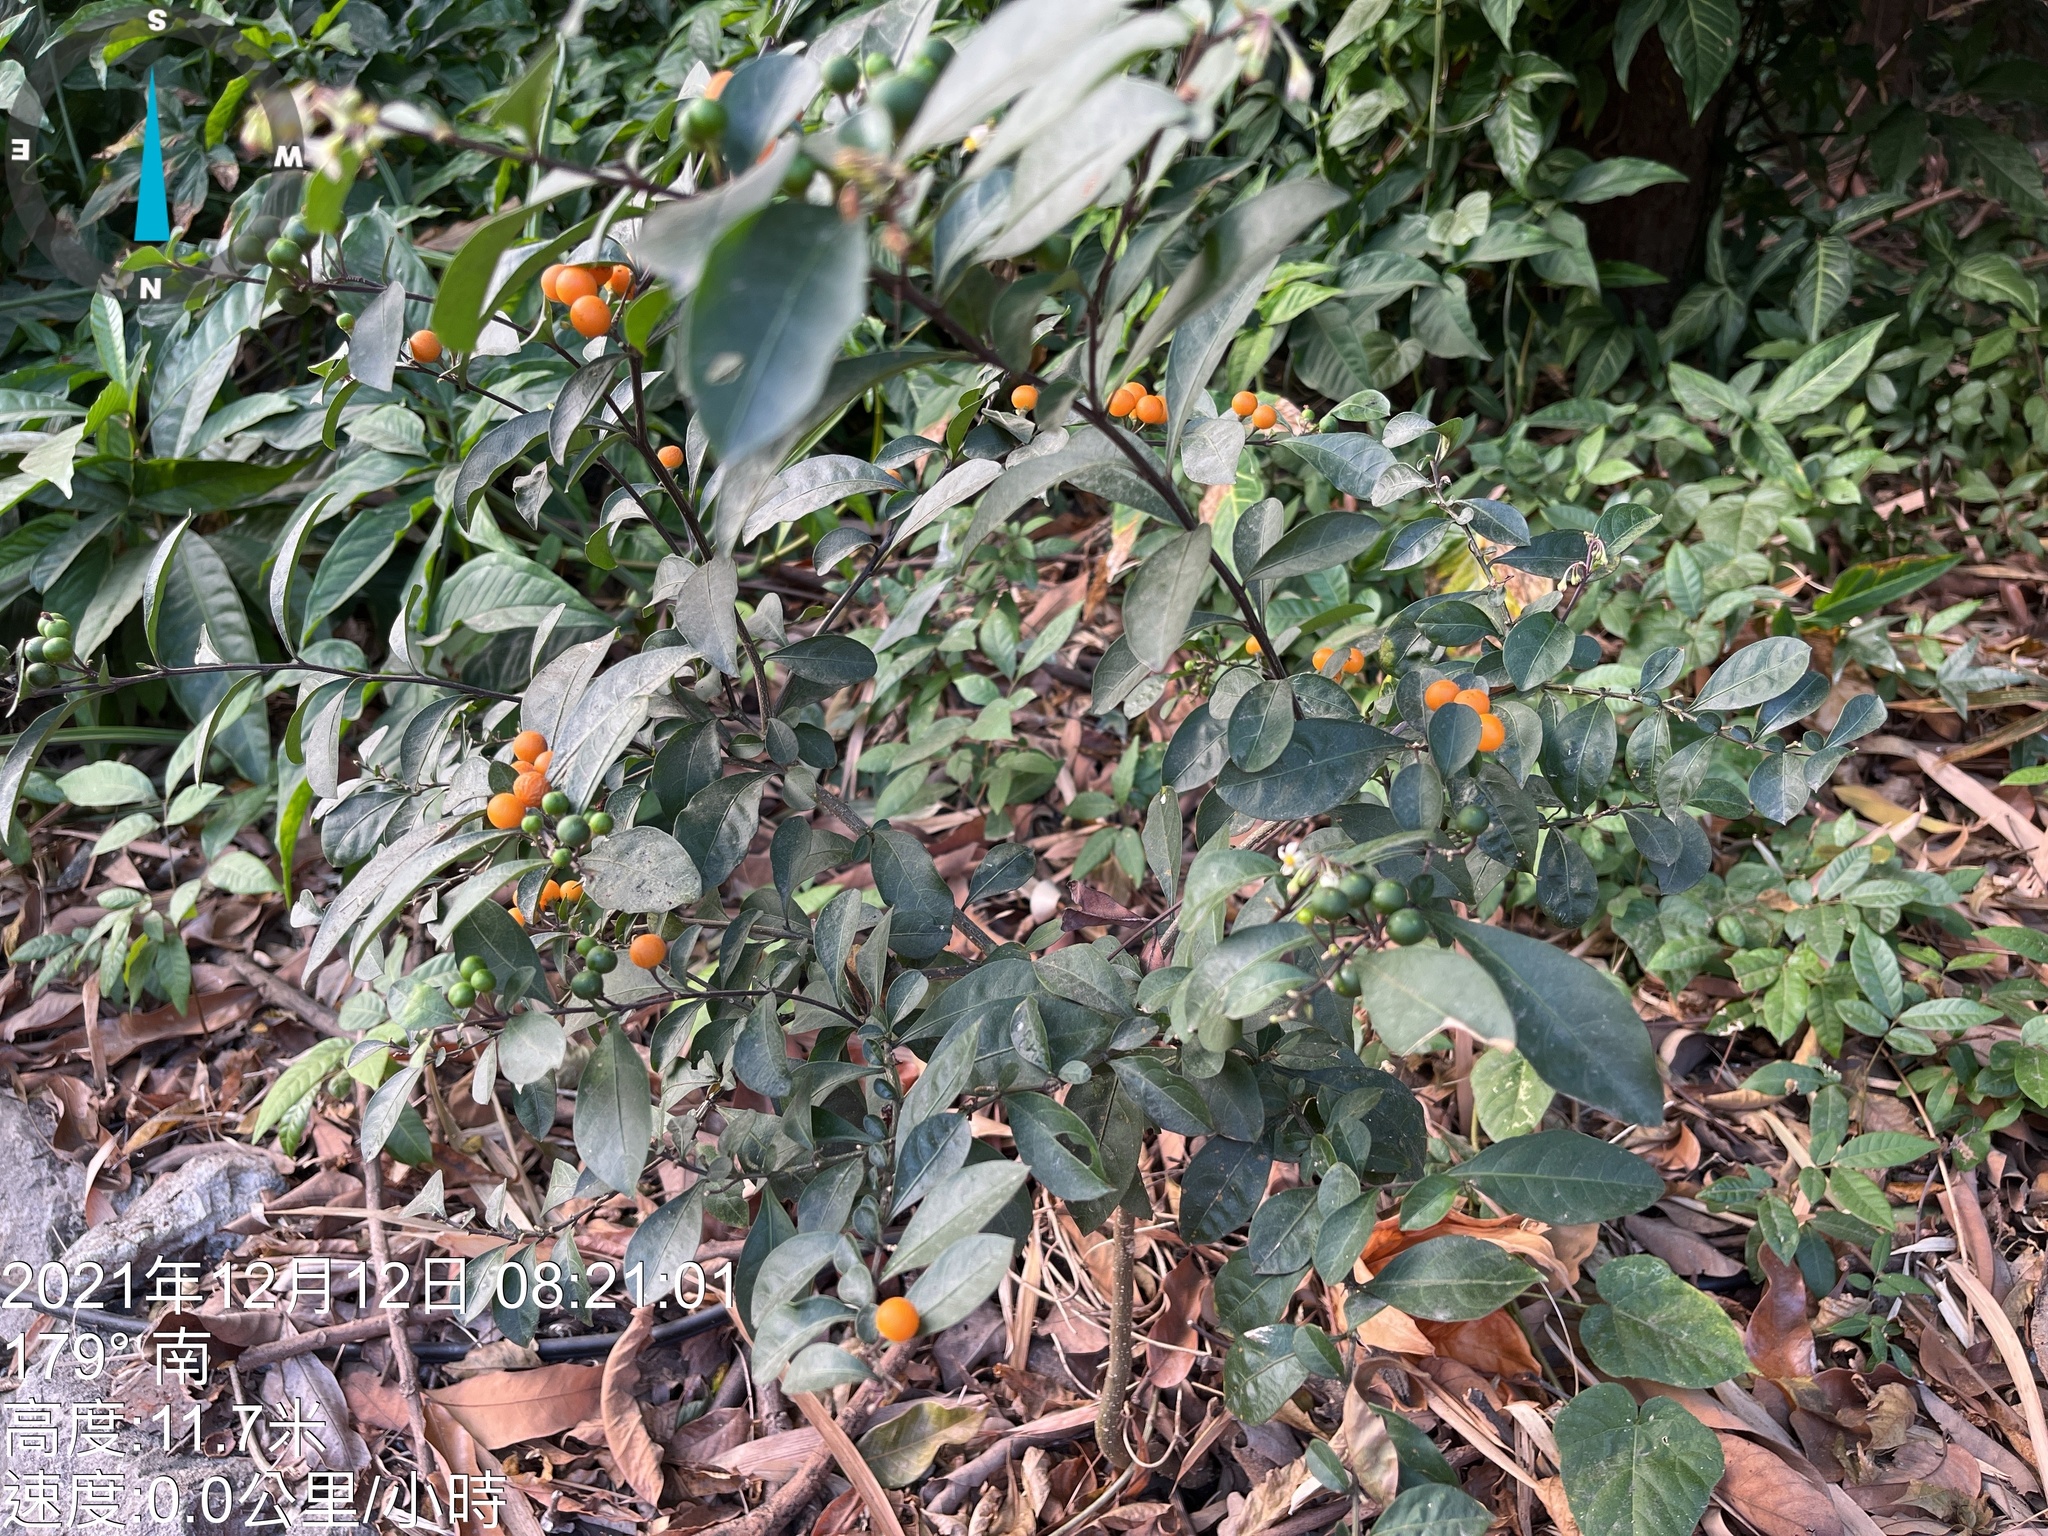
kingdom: Plantae
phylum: Tracheophyta
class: Magnoliopsida
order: Solanales
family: Solanaceae
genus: Solanum
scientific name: Solanum diphyllum
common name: Twoleaf nightshade
